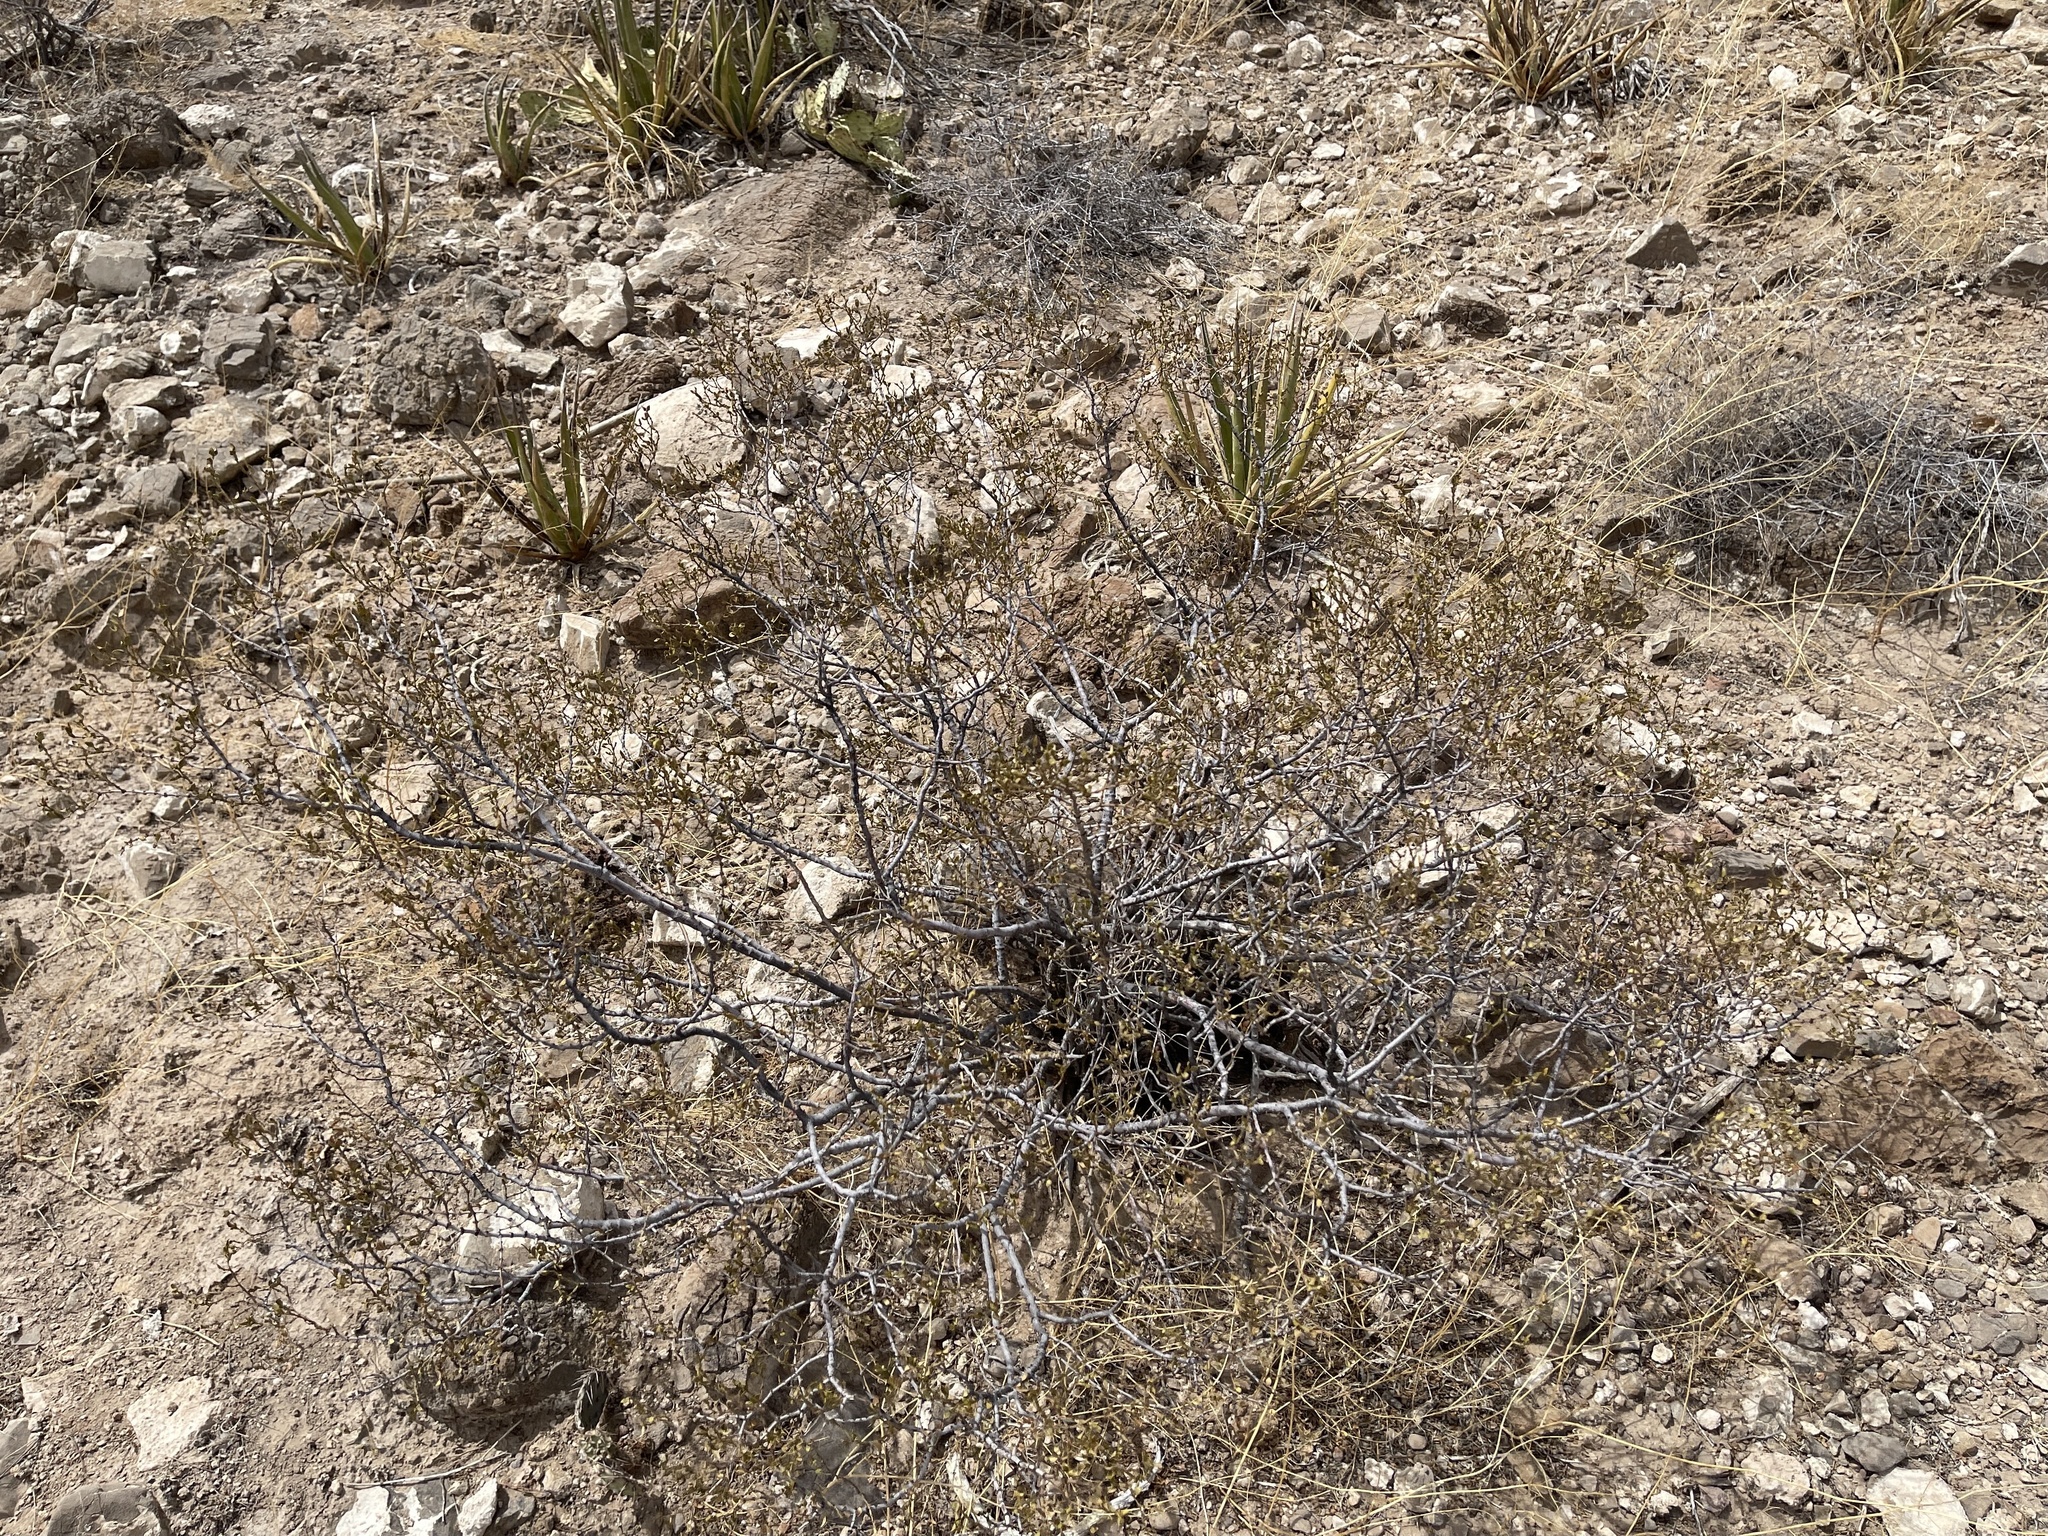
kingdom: Plantae
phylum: Tracheophyta
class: Magnoliopsida
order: Zygophyllales
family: Zygophyllaceae
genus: Larrea
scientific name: Larrea tridentata
